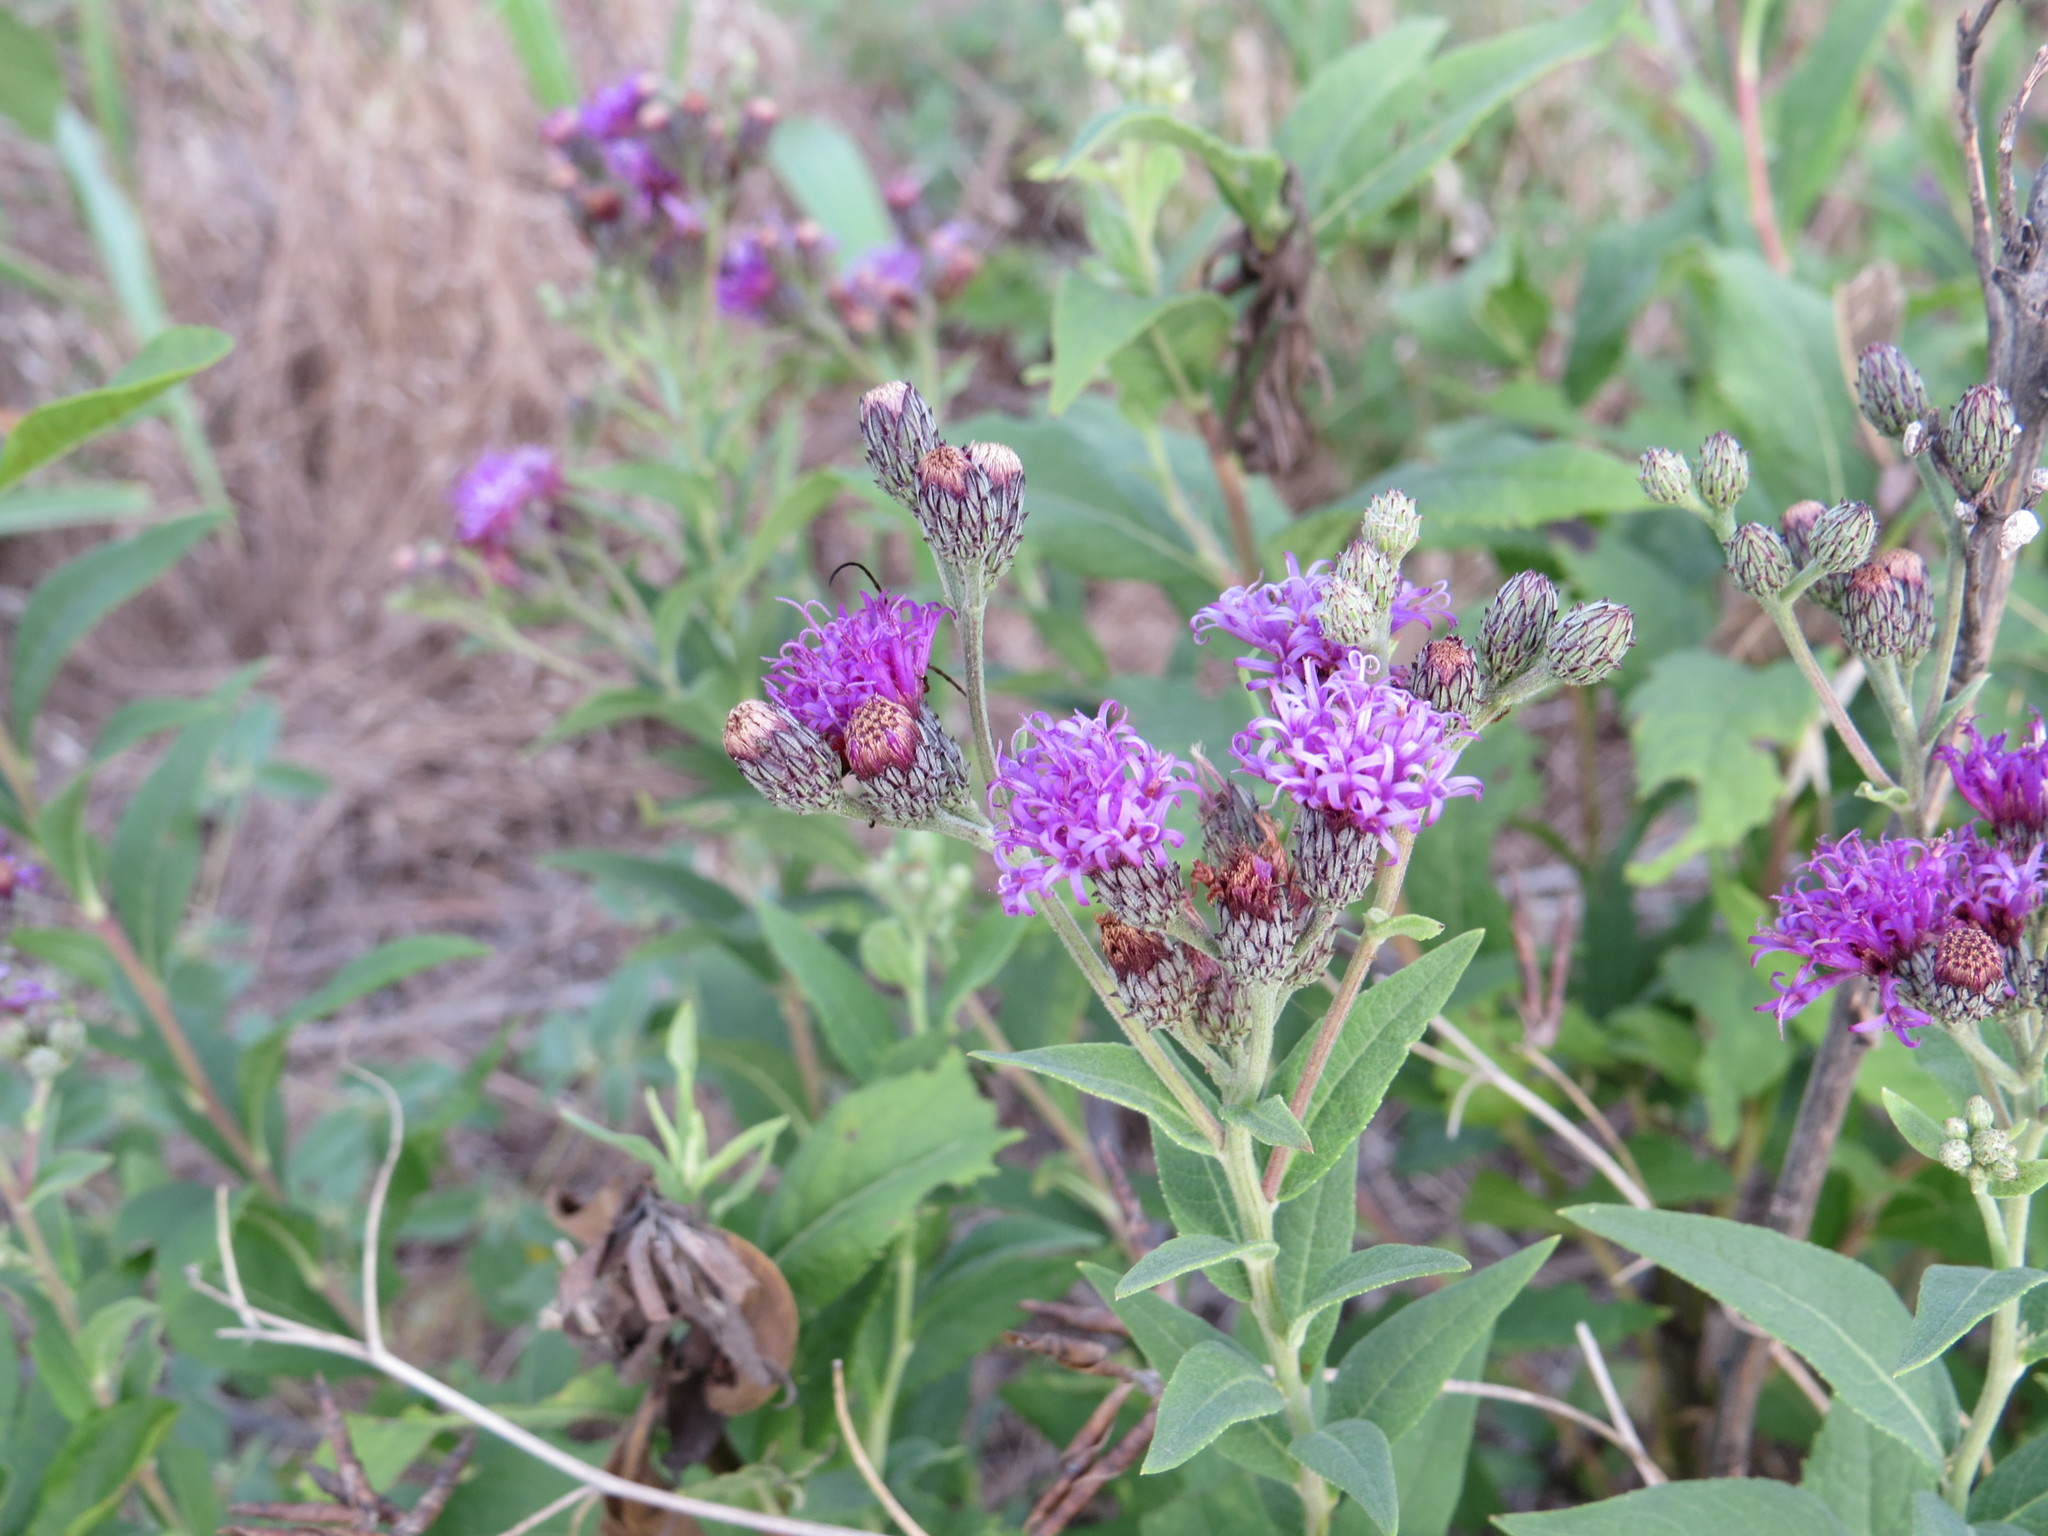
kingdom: Plantae
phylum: Tracheophyta
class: Magnoliopsida
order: Asterales
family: Asteraceae
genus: Vernonia
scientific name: Vernonia baldwinii
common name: Western ironweed
